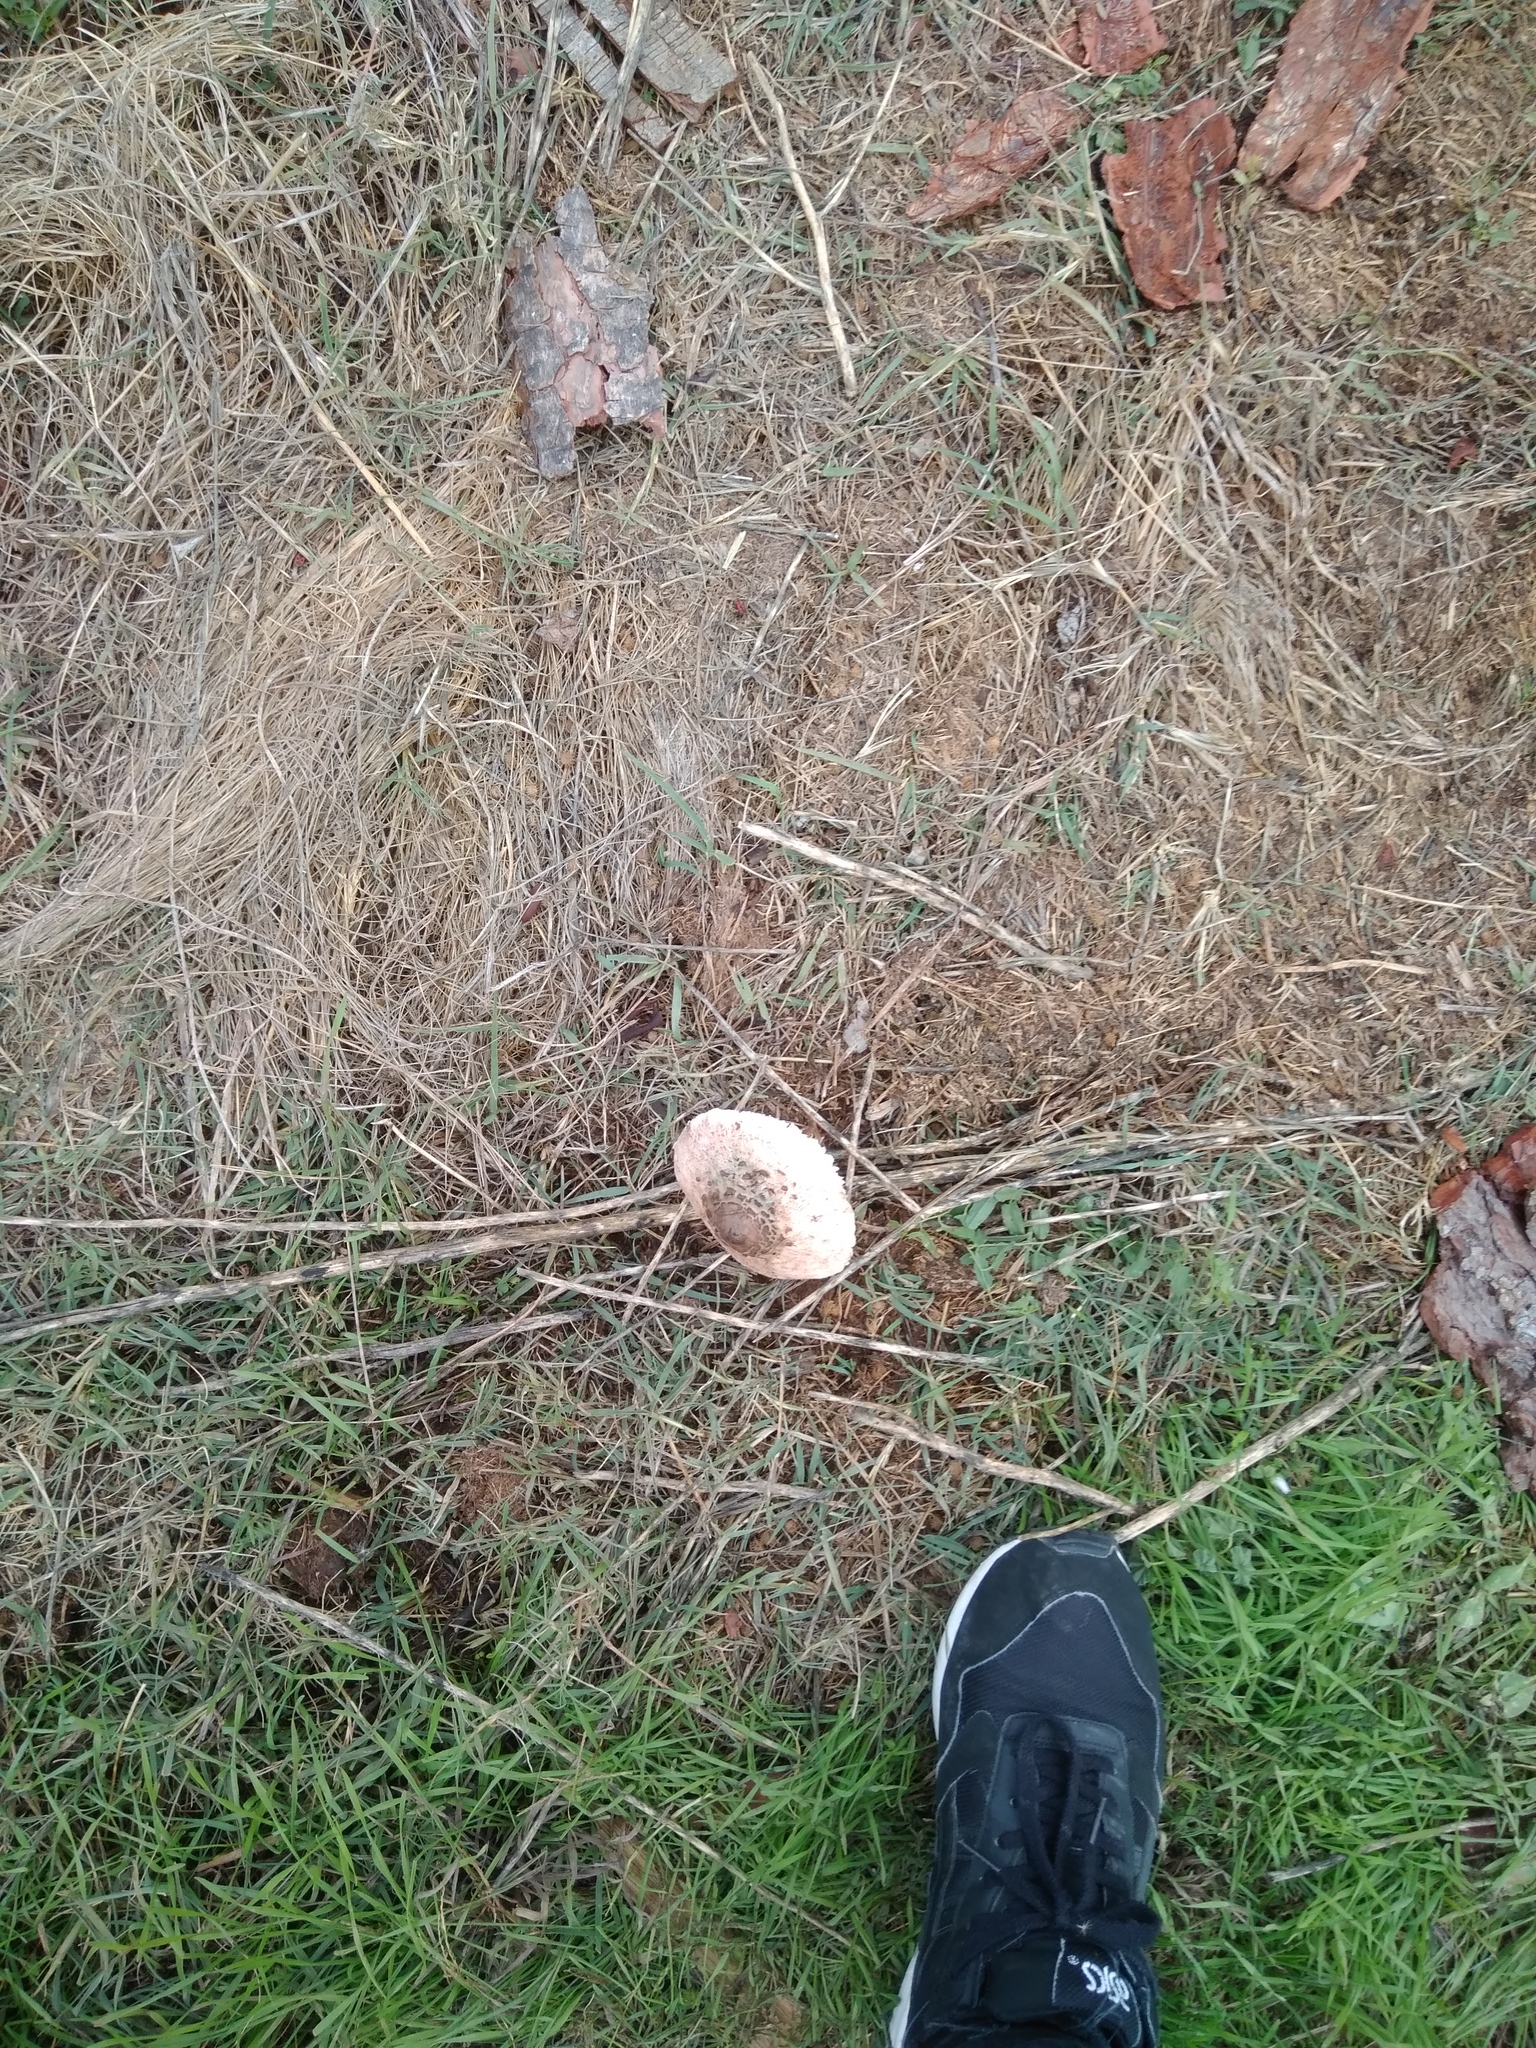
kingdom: Fungi
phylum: Basidiomycota
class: Agaricomycetes
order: Agaricales
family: Agaricaceae
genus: Macrolepiota
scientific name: Macrolepiota procera
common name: Parasol
